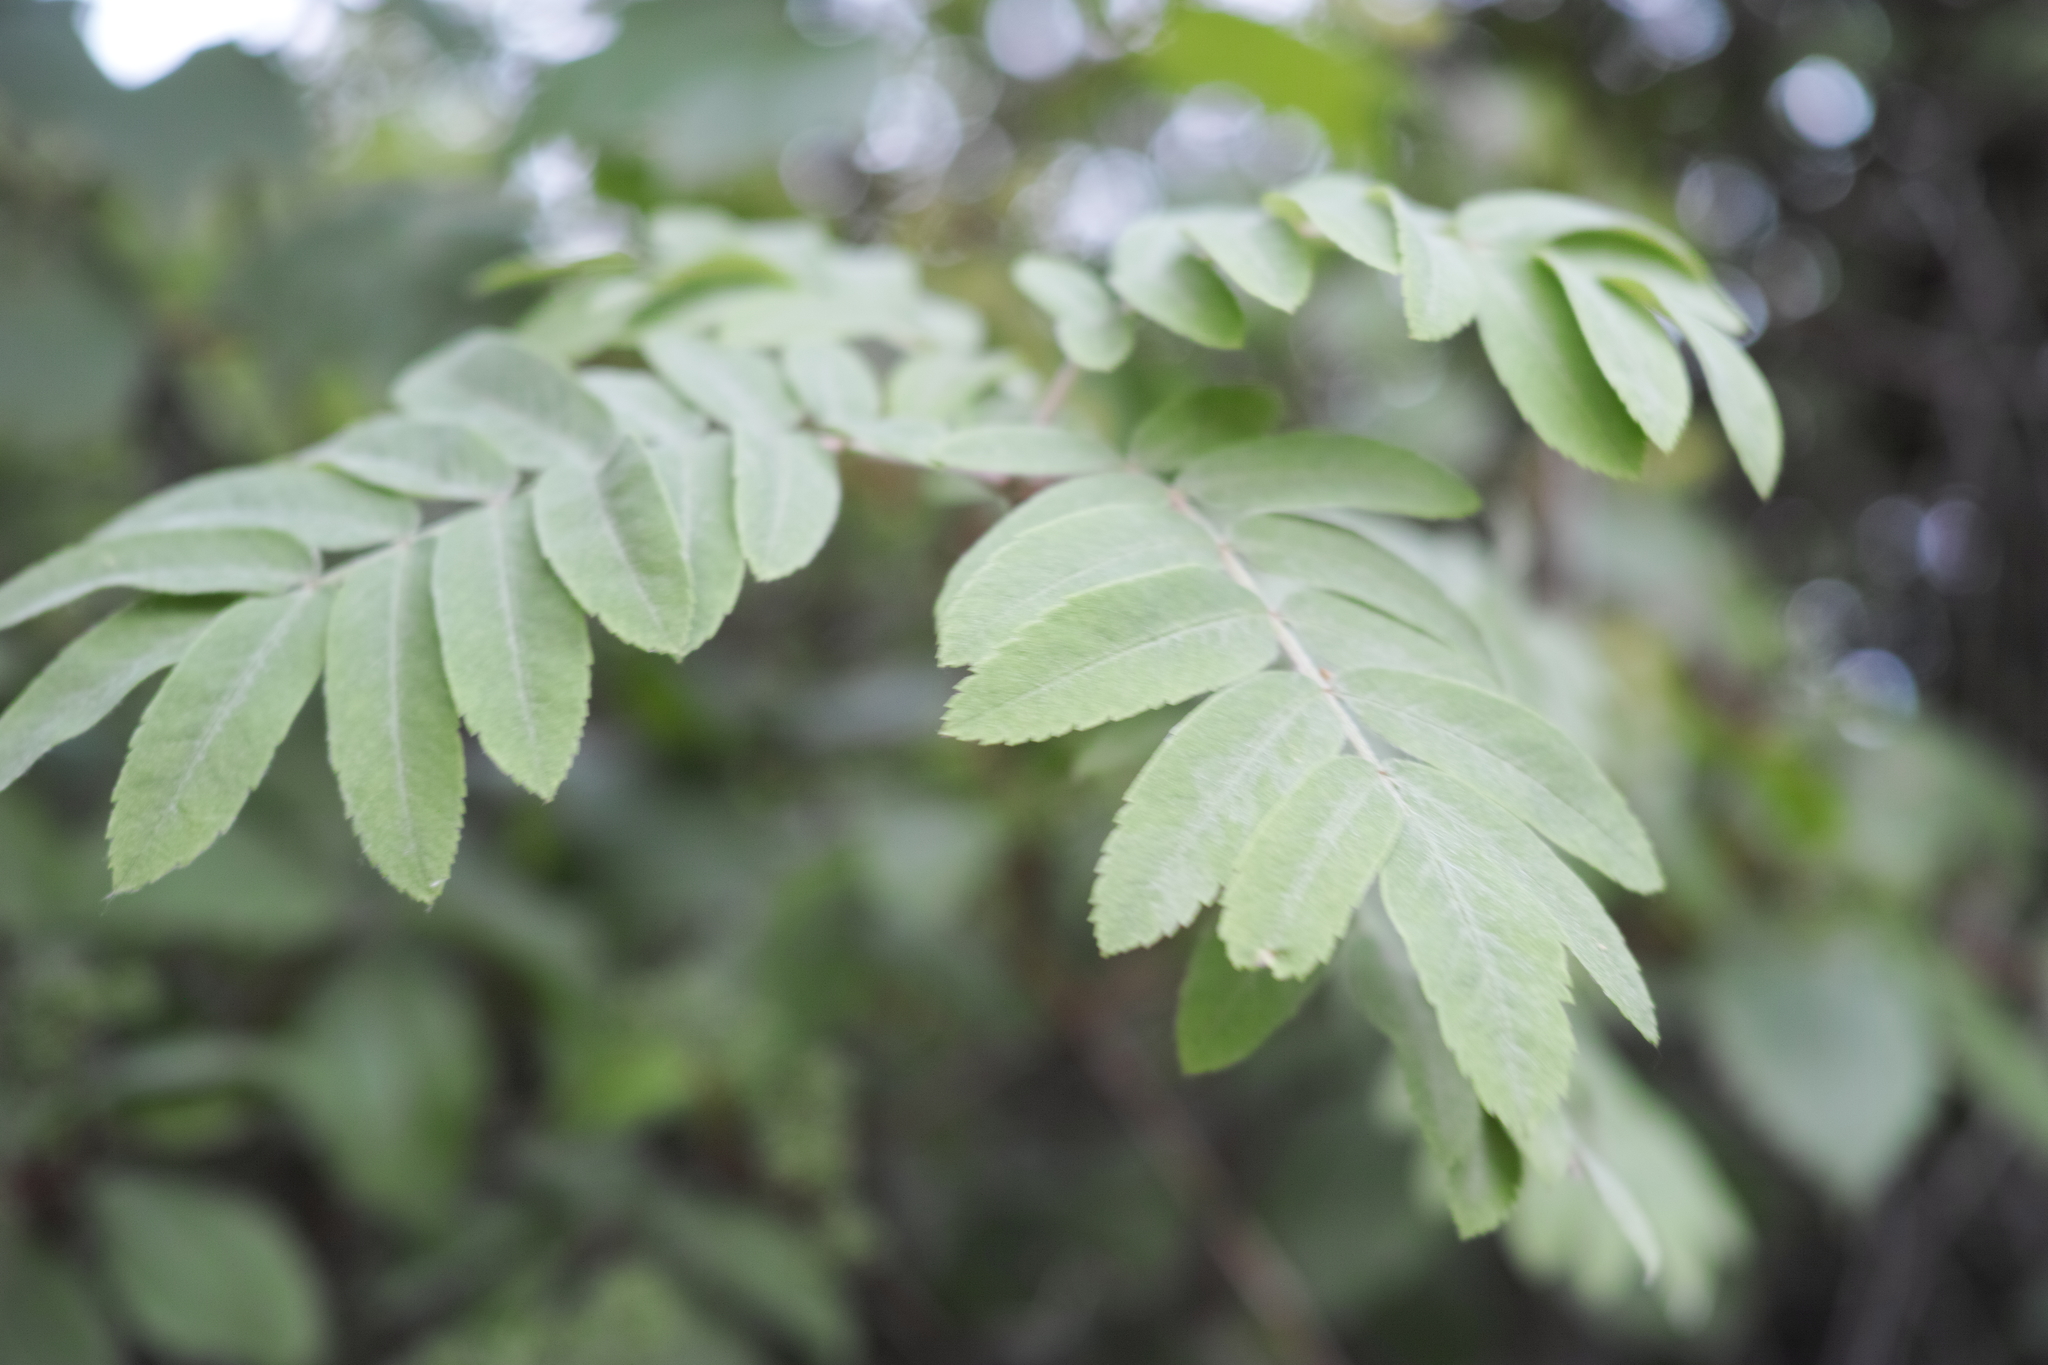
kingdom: Plantae
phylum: Tracheophyta
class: Magnoliopsida
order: Rosales
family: Rosaceae
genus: Sorbus
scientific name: Sorbus aucuparia
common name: Rowan
